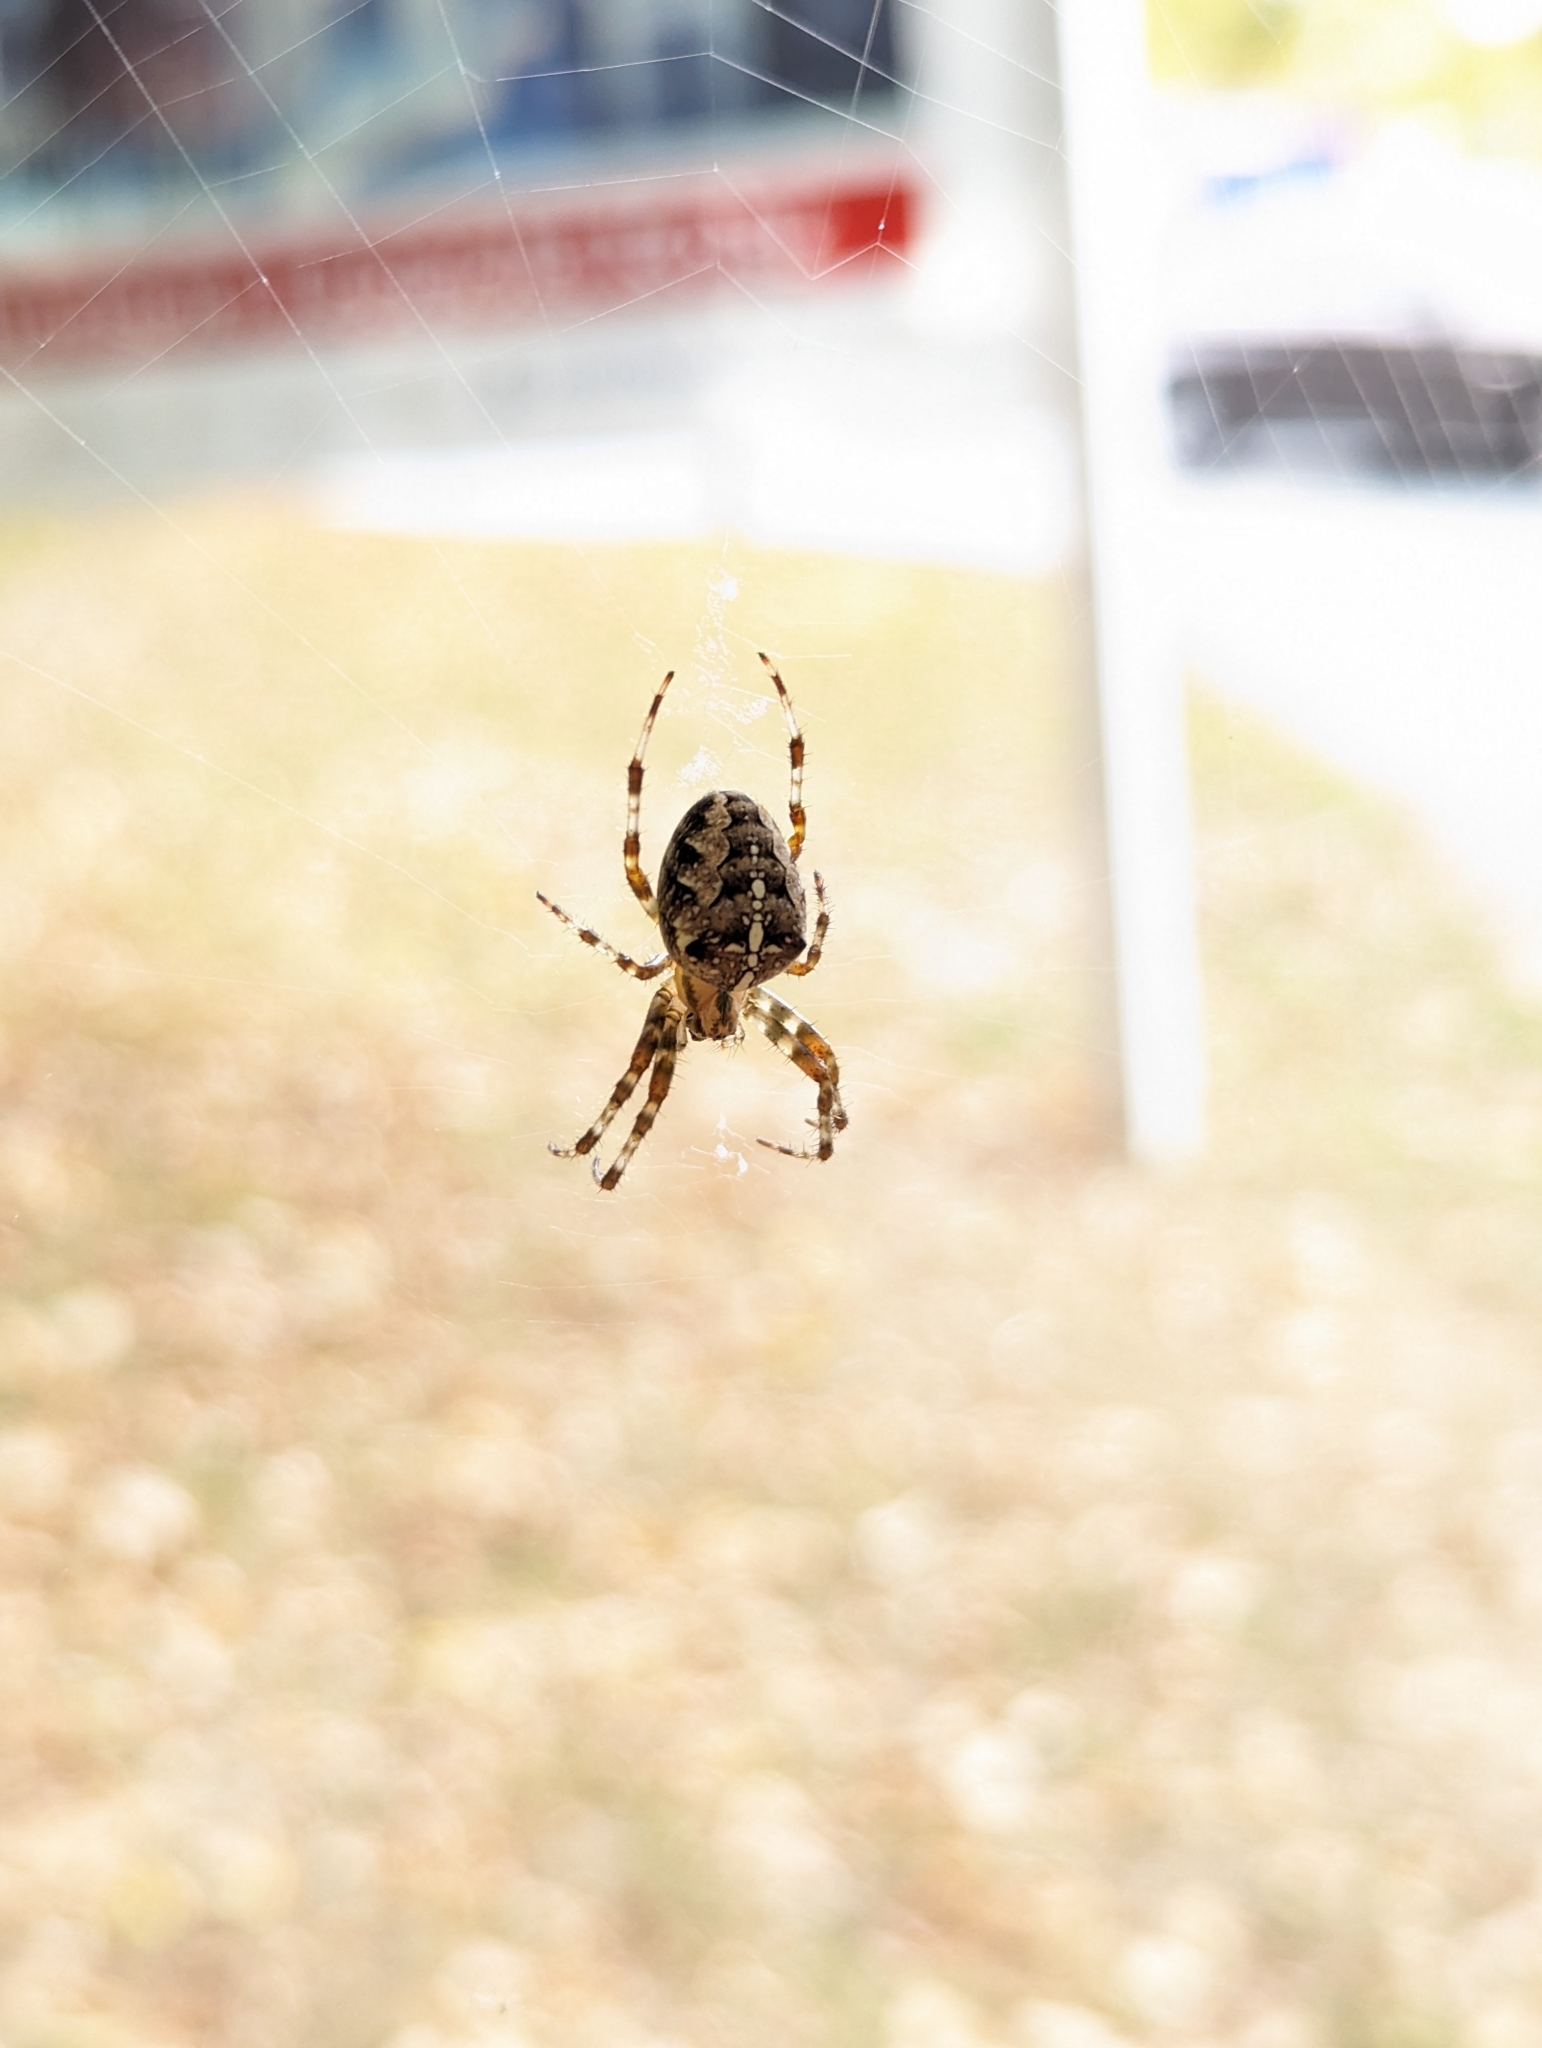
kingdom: Animalia
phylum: Arthropoda
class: Arachnida
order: Araneae
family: Araneidae
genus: Araneus
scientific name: Araneus diadematus
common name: Cross orbweaver
